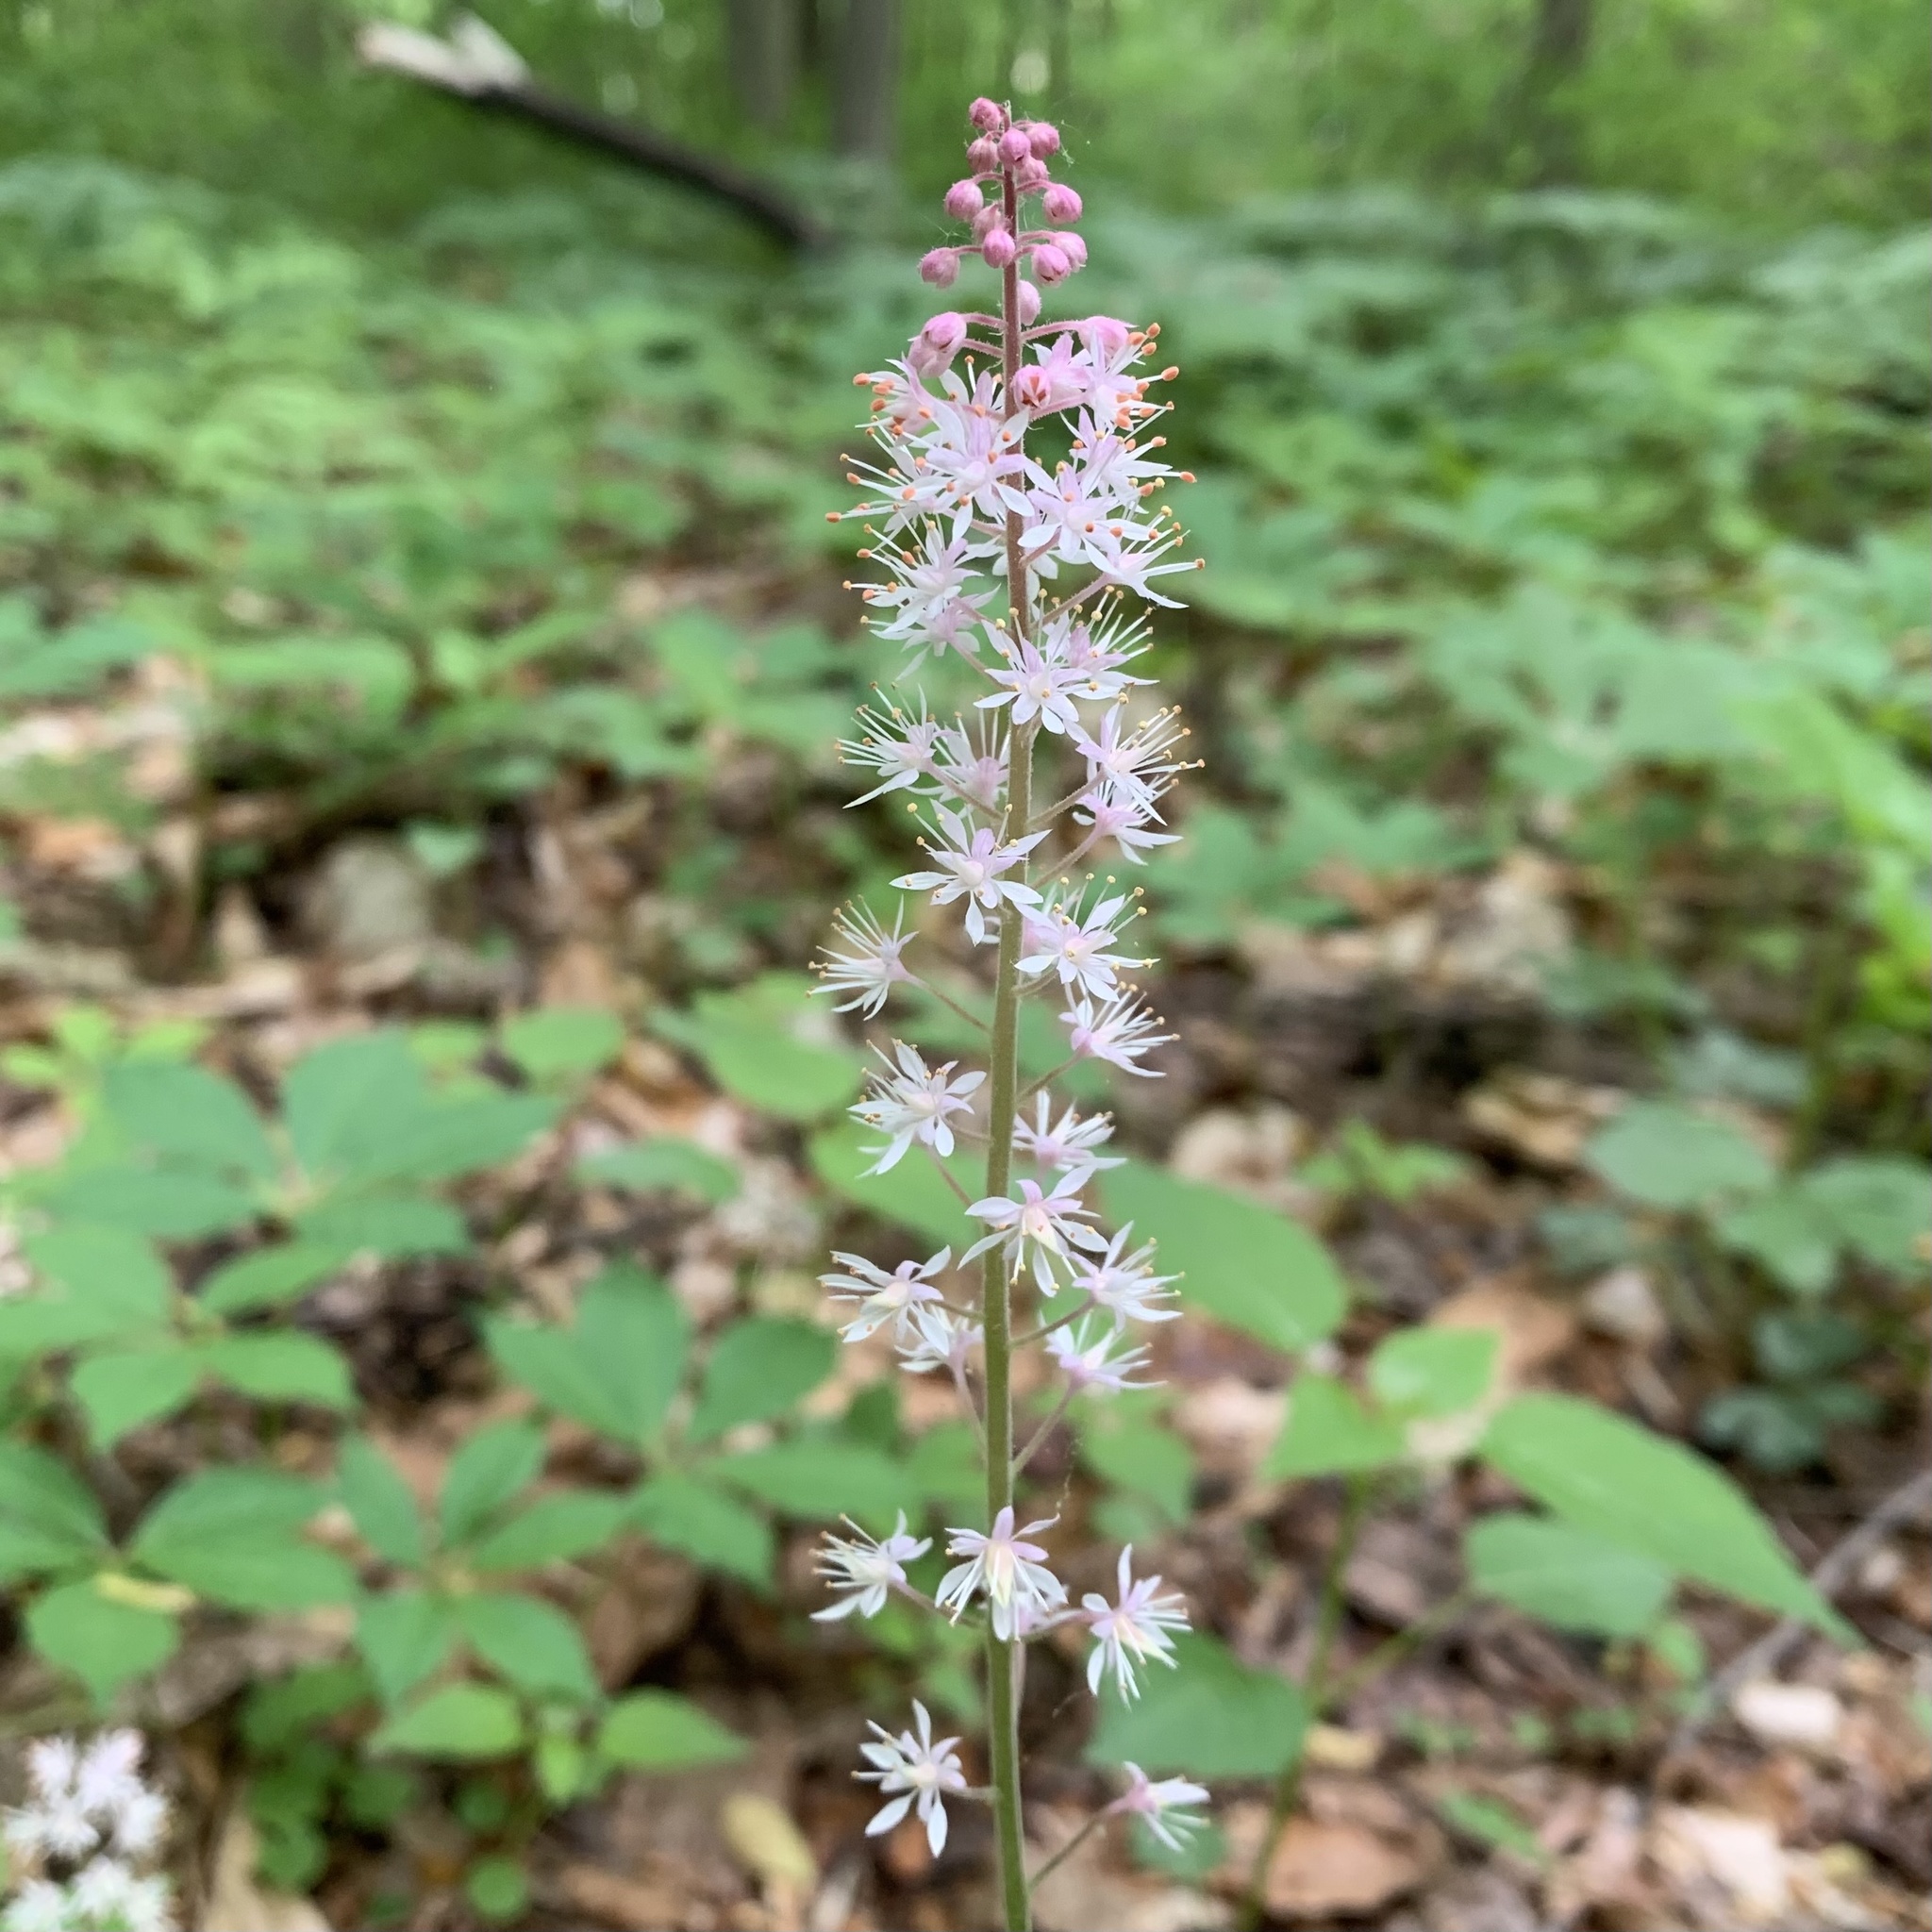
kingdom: Plantae
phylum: Tracheophyta
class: Magnoliopsida
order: Saxifragales
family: Saxifragaceae
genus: Tiarella
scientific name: Tiarella stolonifera
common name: Stoloniferous foamflower
